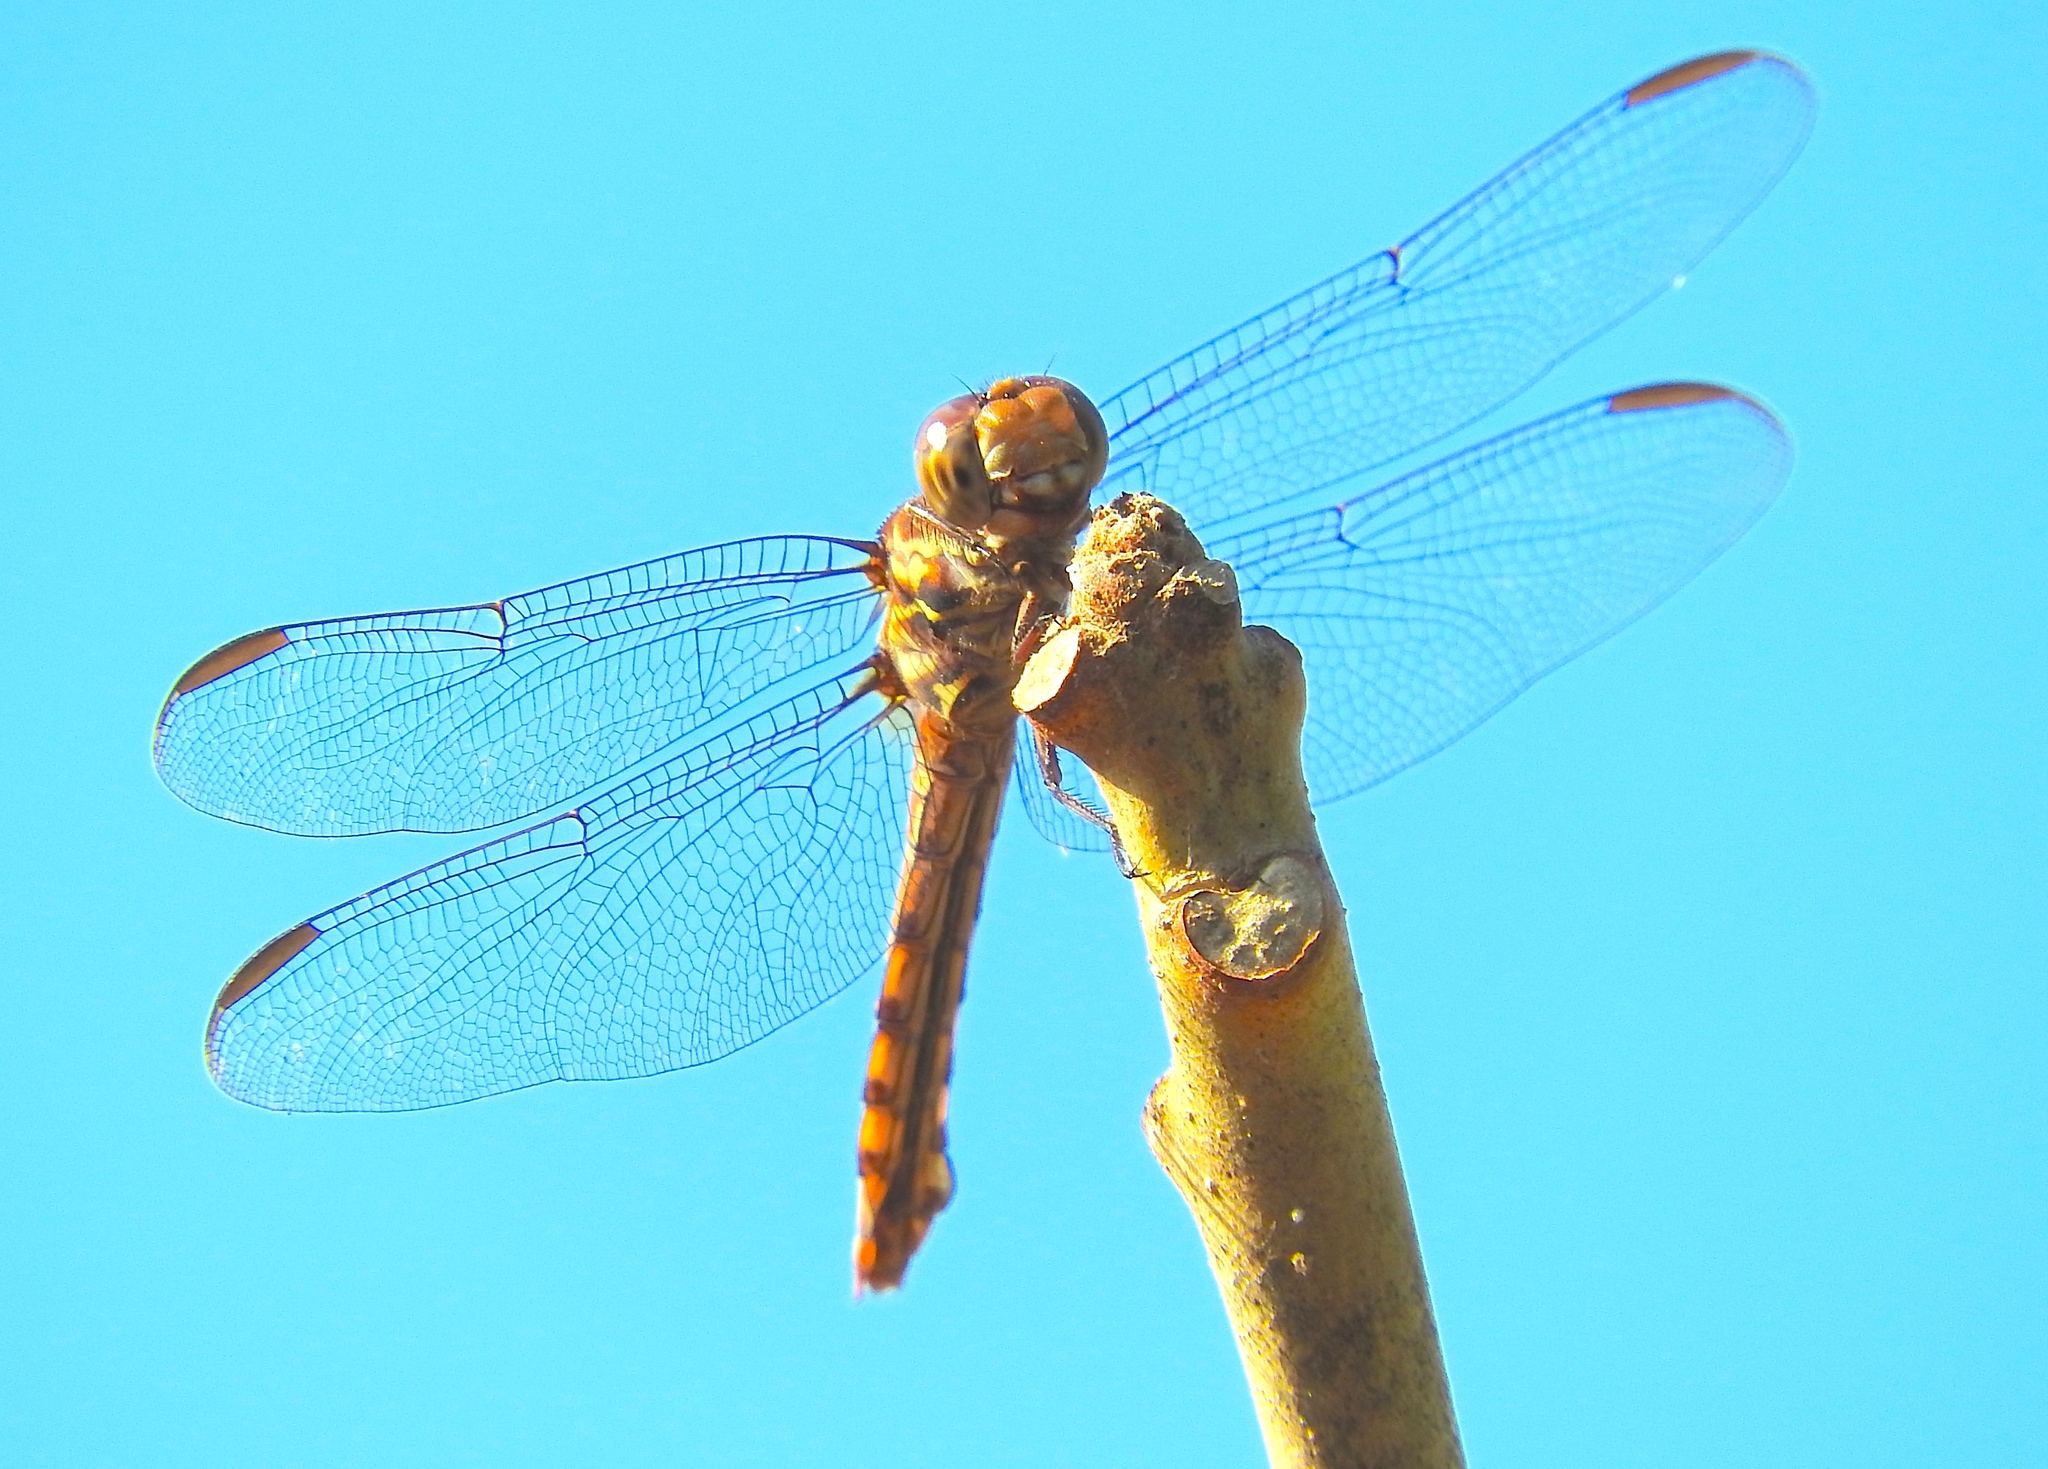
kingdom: Animalia
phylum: Arthropoda
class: Insecta
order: Odonata
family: Libellulidae
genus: Orthemis
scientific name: Orthemis ferruginea
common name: Roseate skimmer
